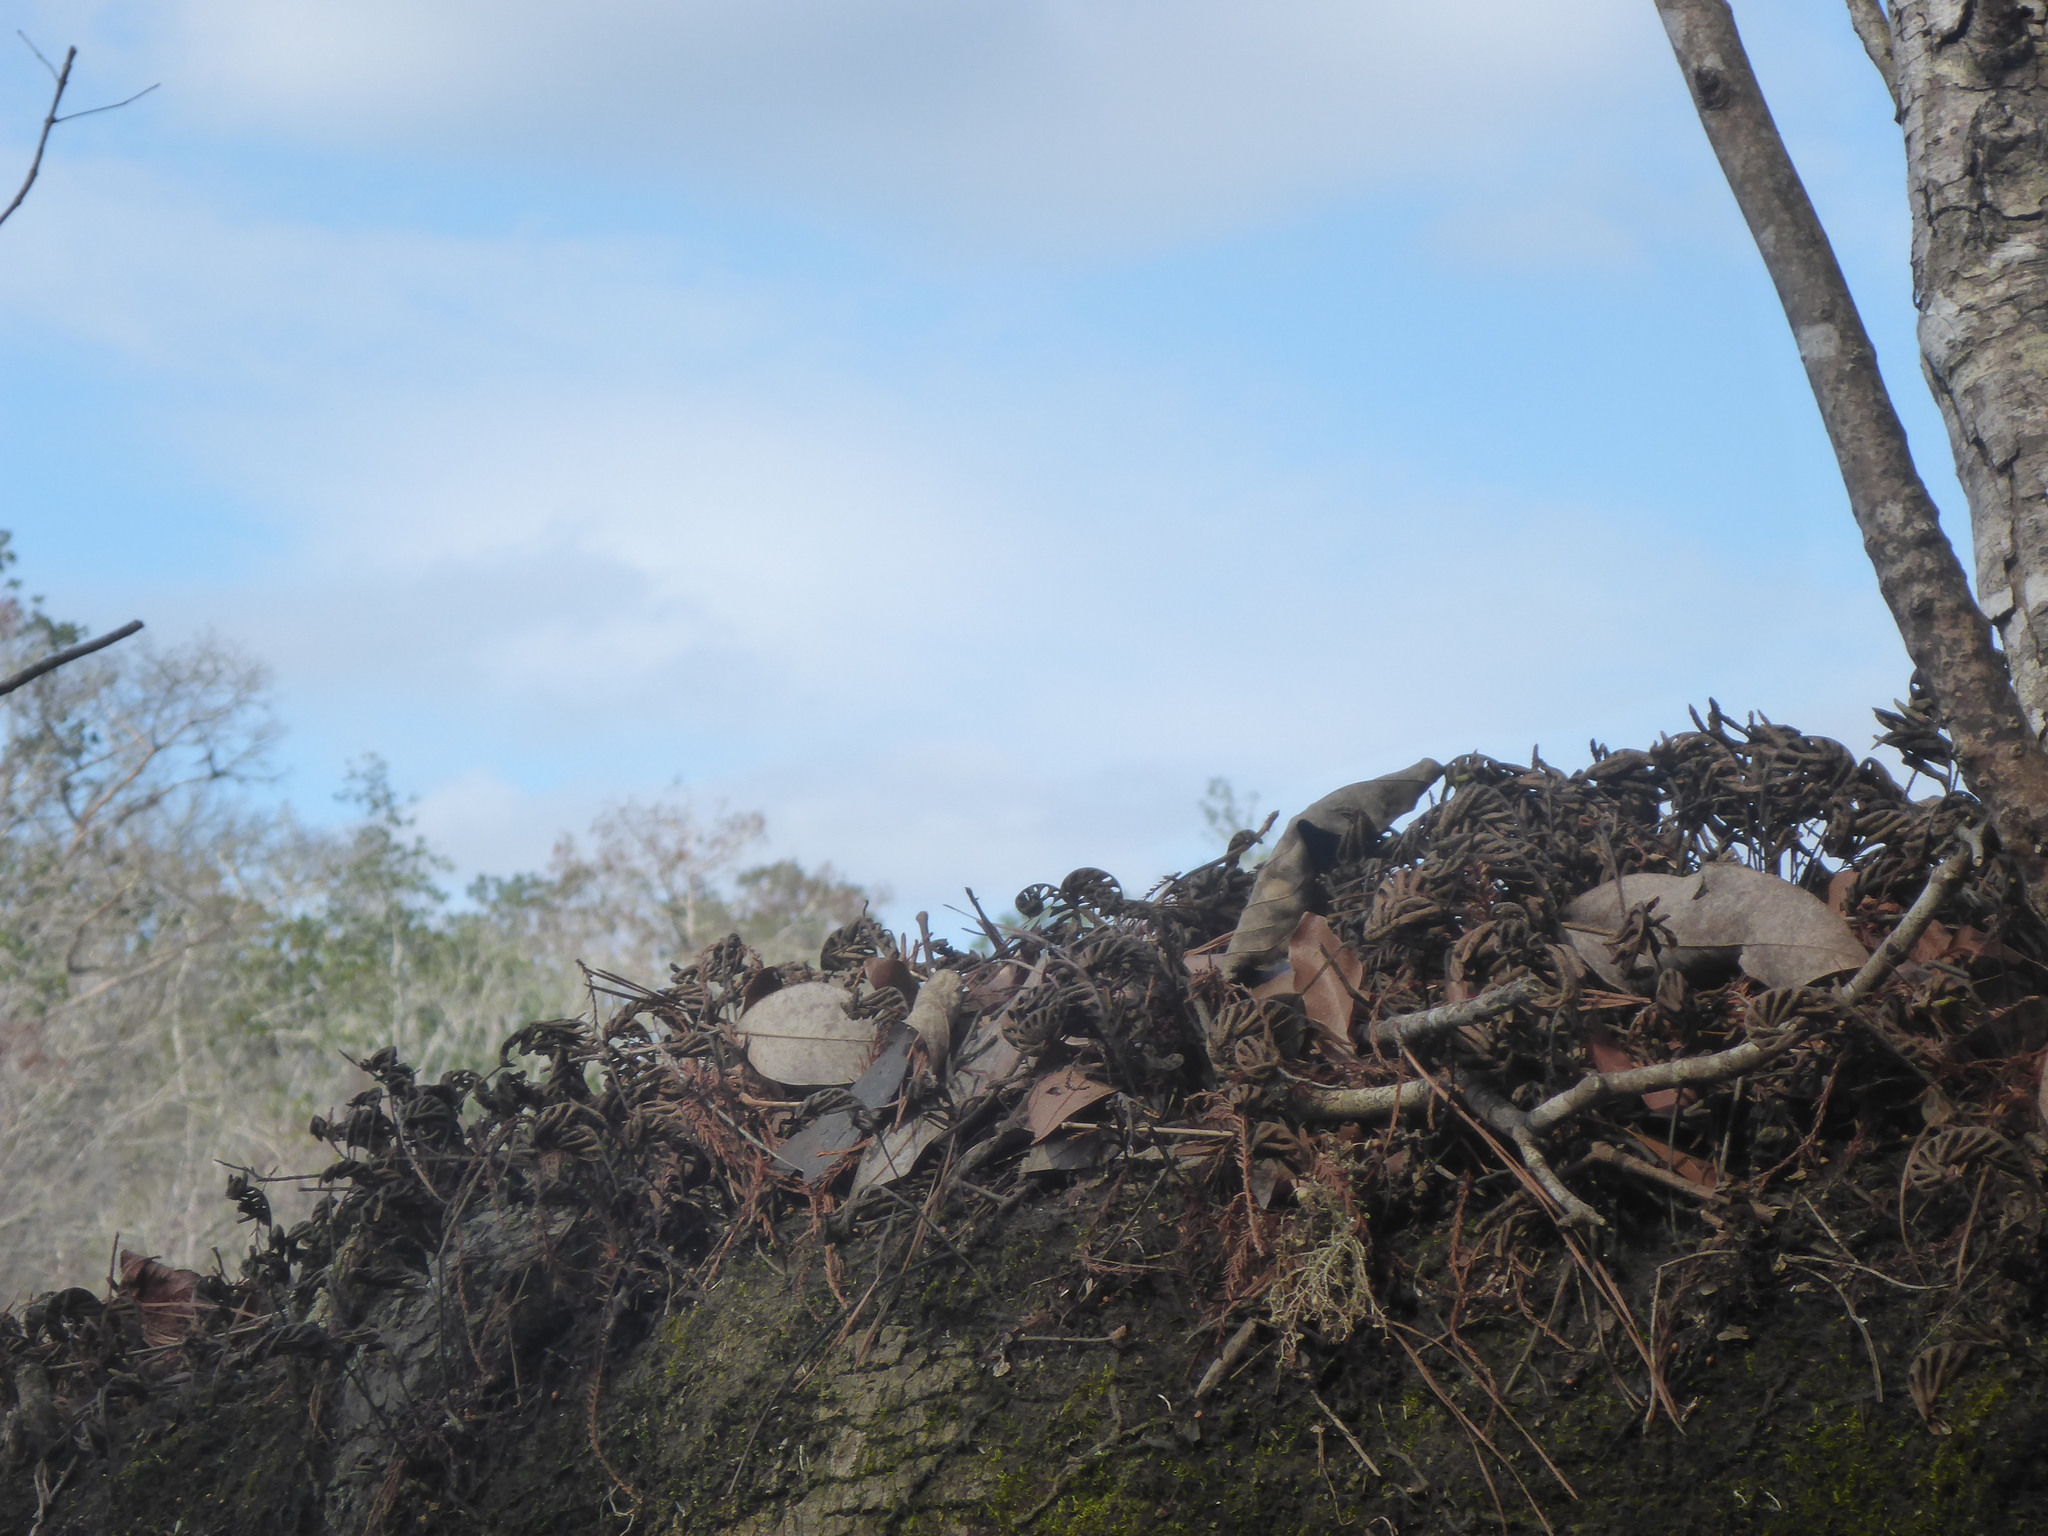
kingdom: Plantae
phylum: Tracheophyta
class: Polypodiopsida
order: Polypodiales
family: Polypodiaceae
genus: Pleopeltis
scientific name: Pleopeltis michauxiana
